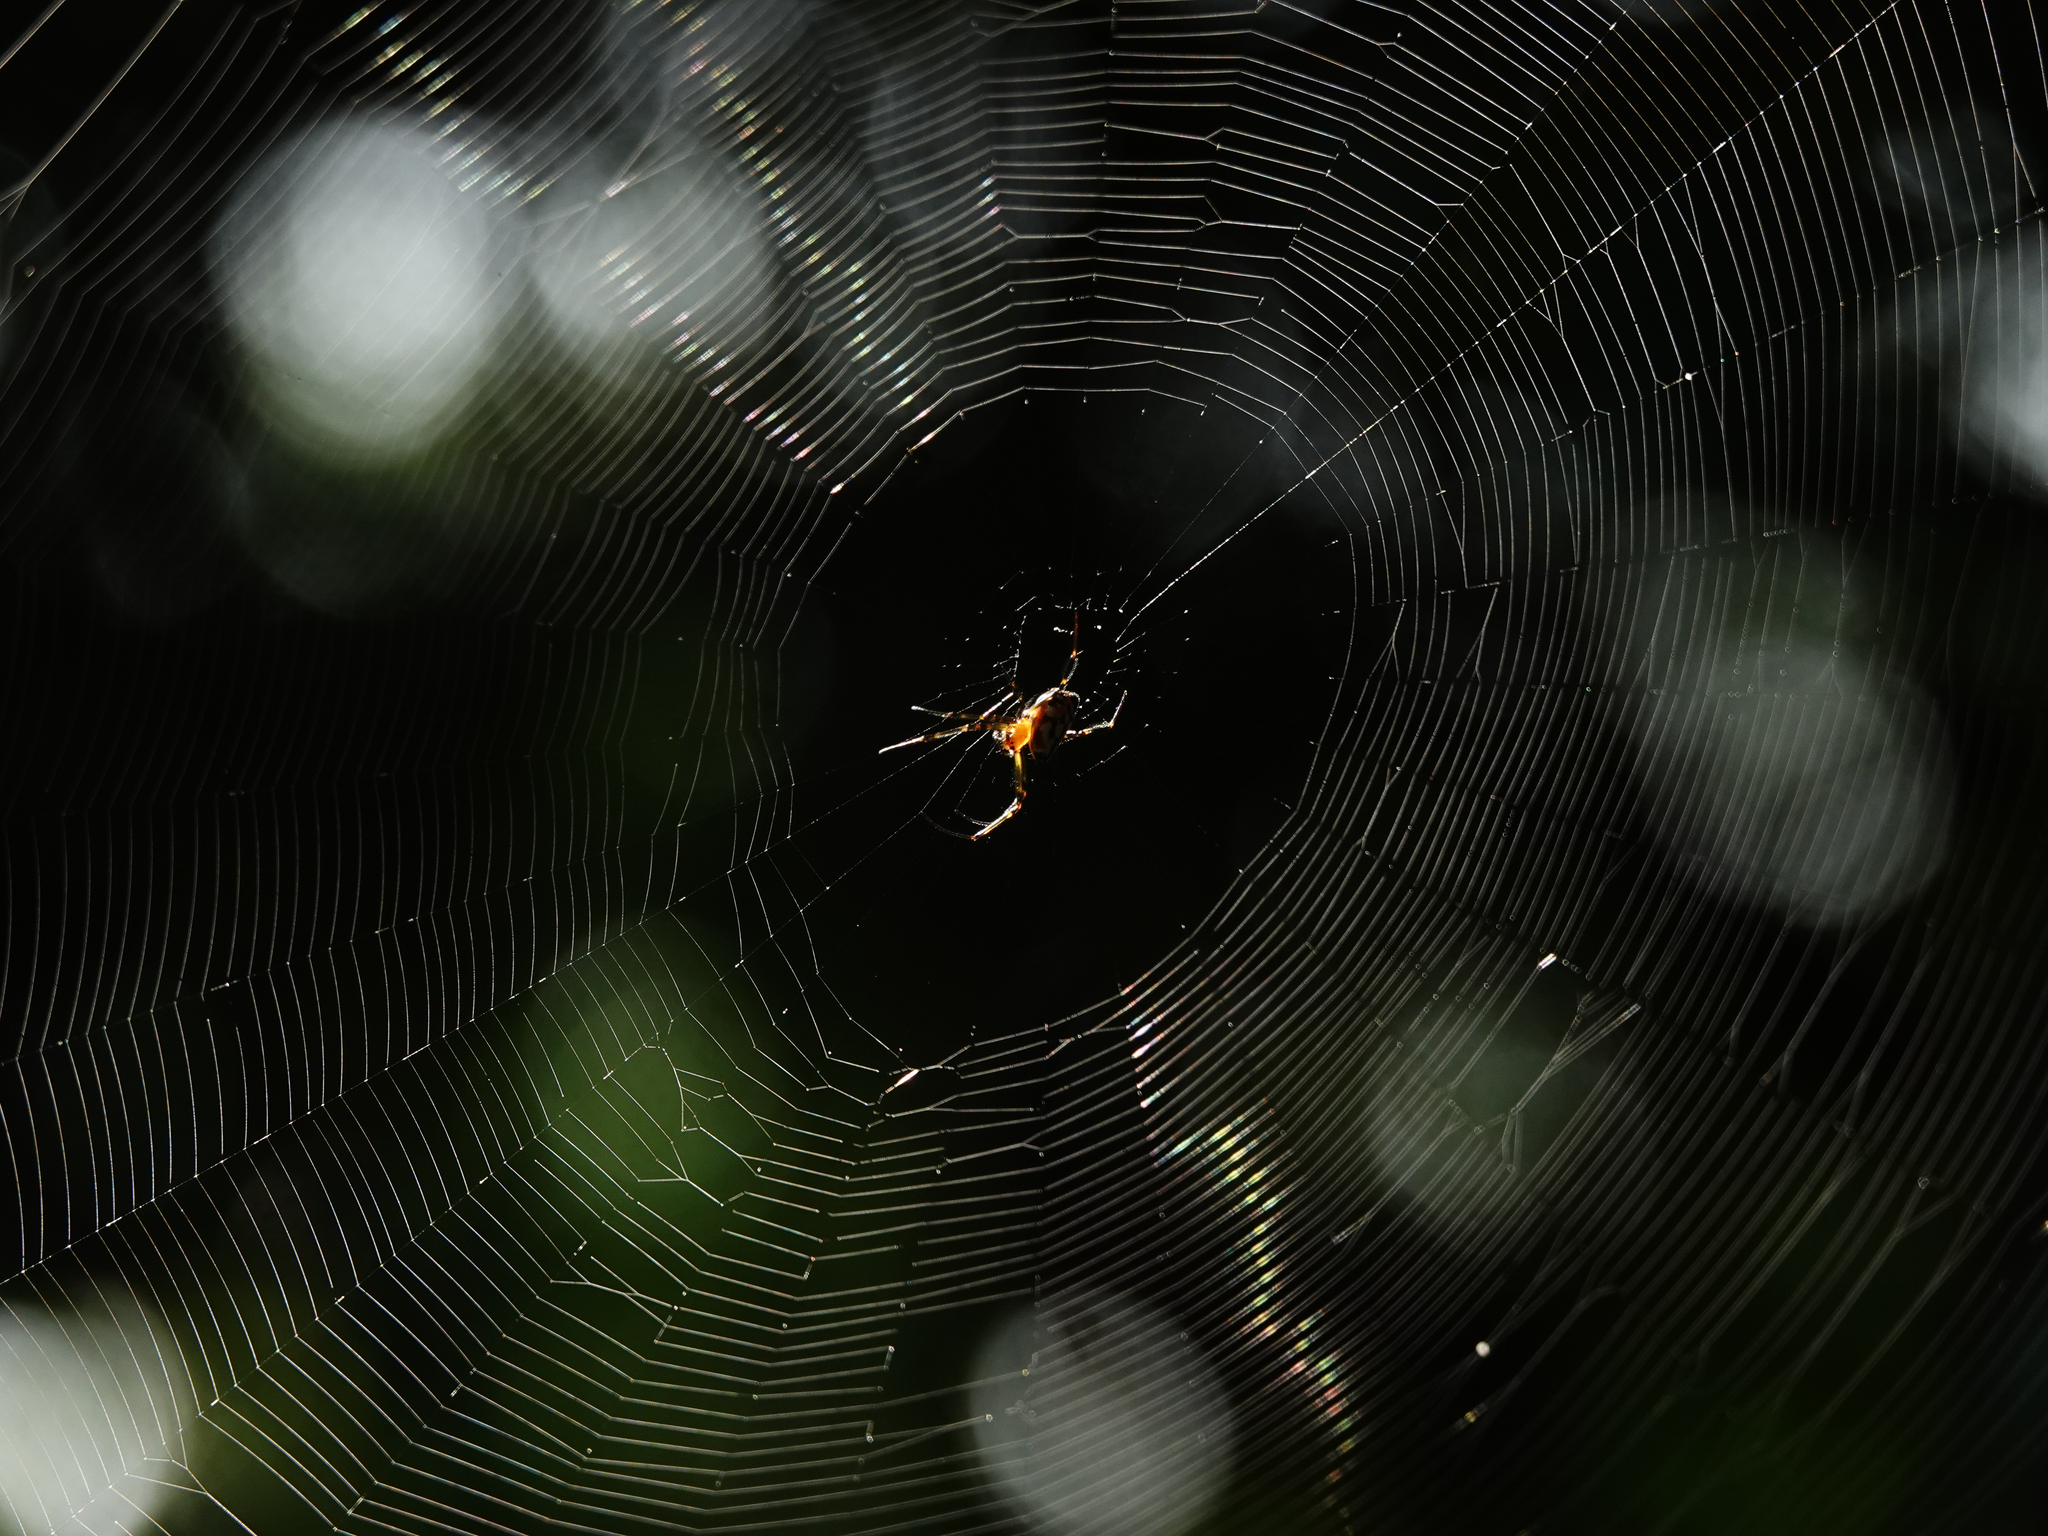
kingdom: Animalia
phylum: Arthropoda
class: Arachnida
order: Araneae
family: Tetragnathidae
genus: Leucauge
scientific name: Leucauge fastigata
